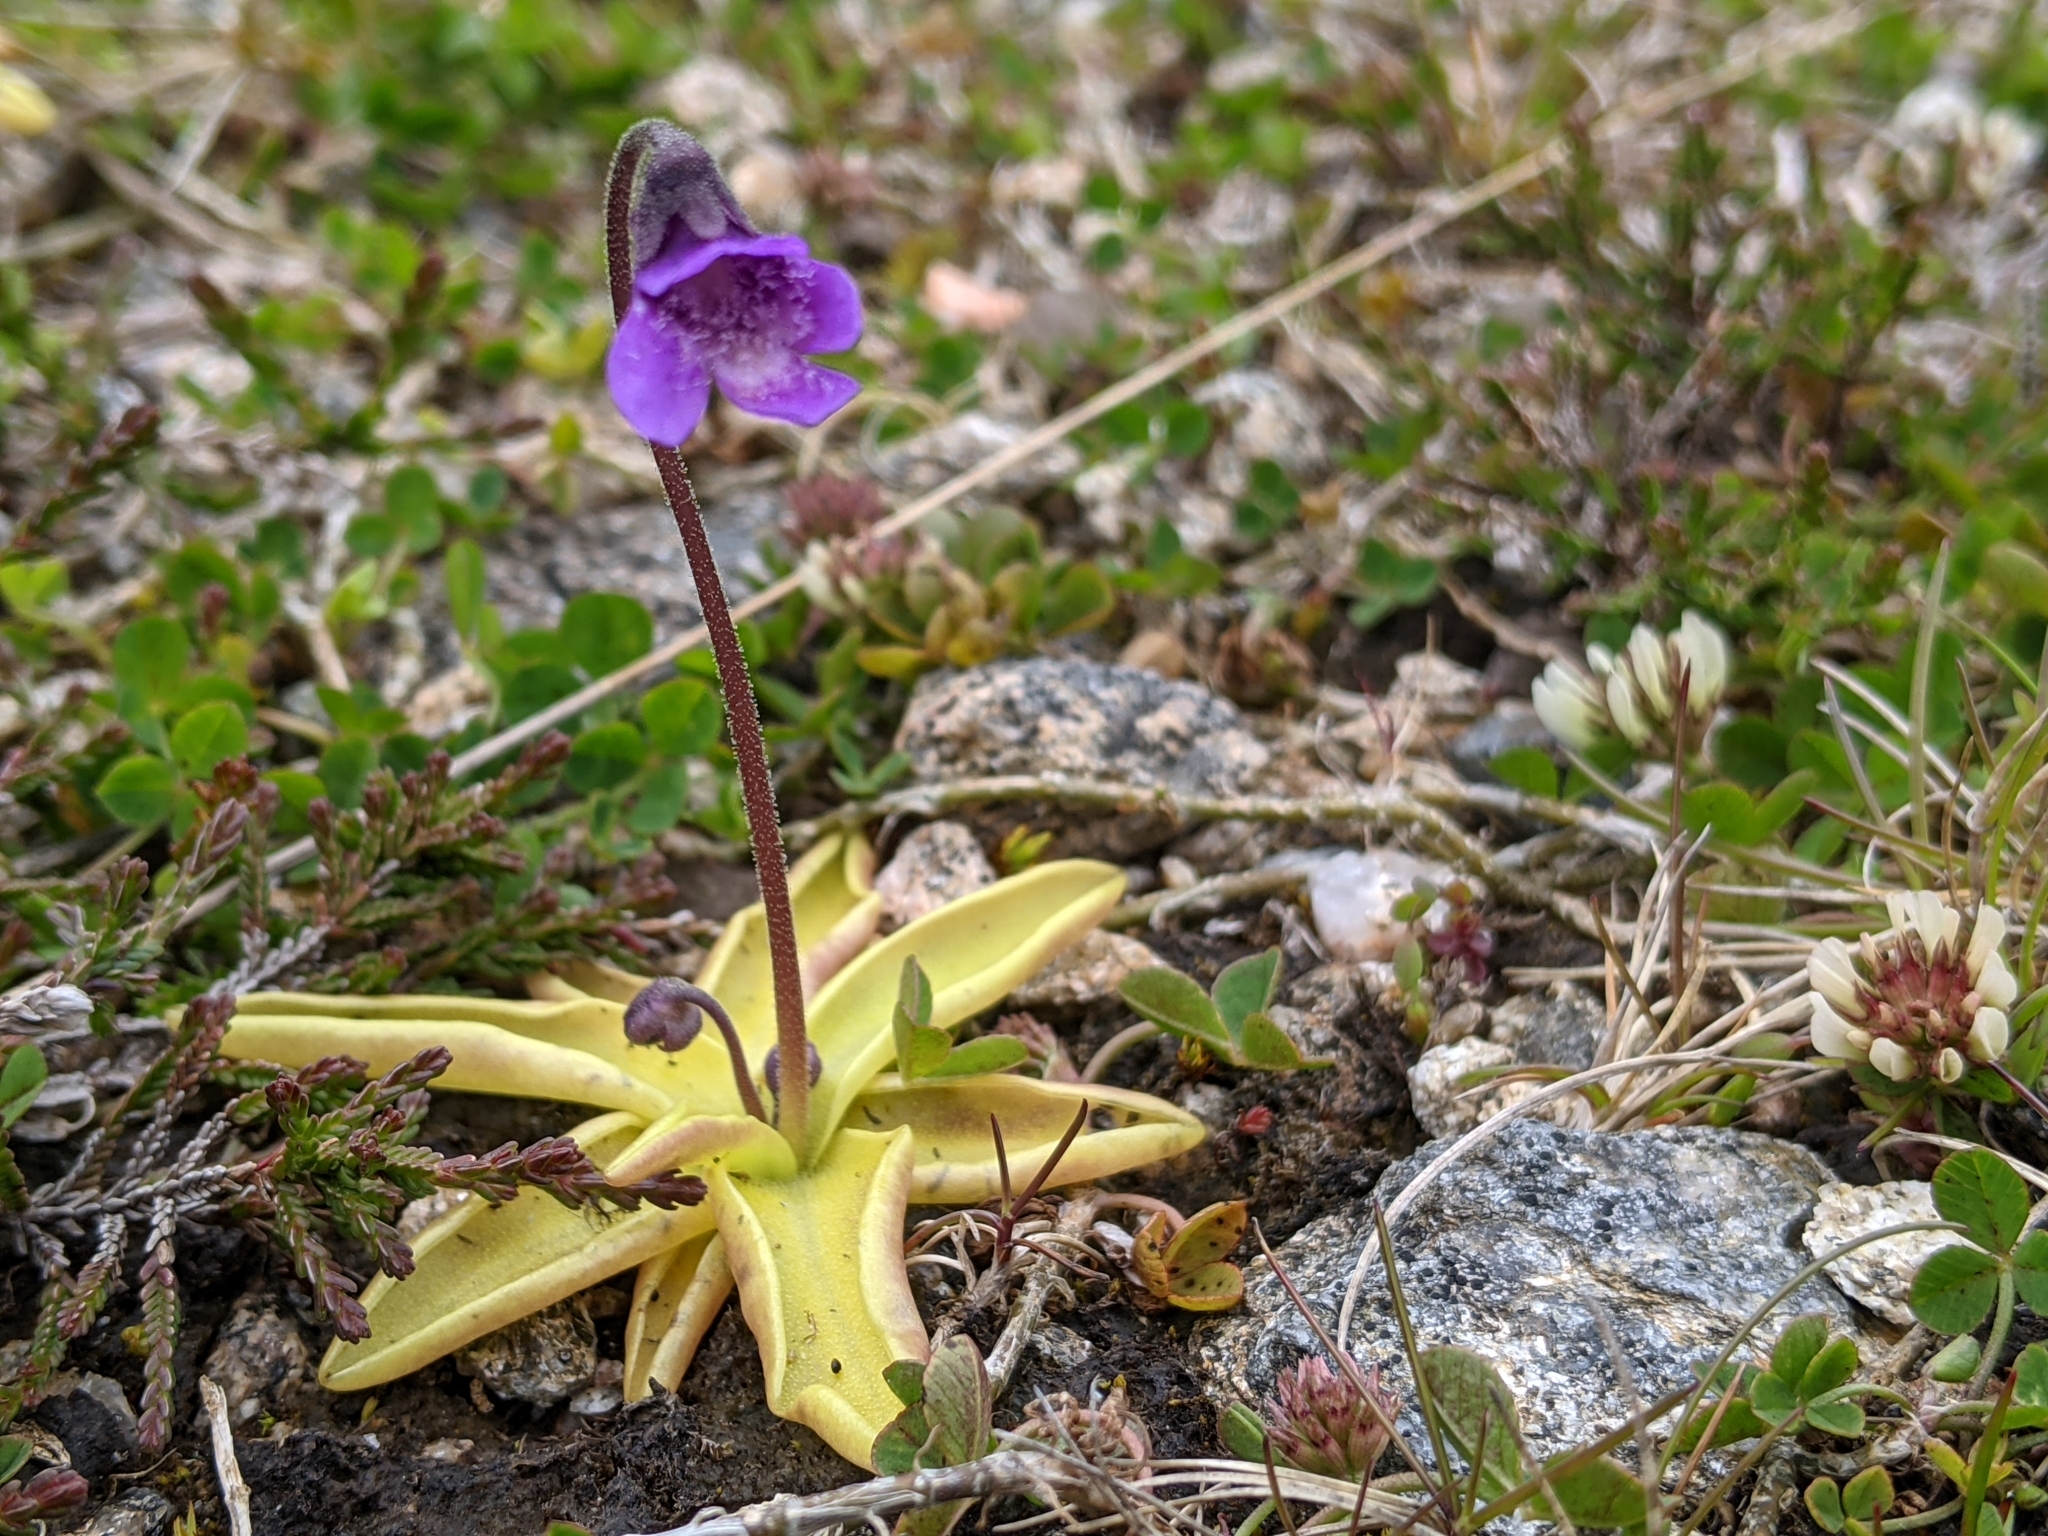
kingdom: Plantae
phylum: Tracheophyta
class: Magnoliopsida
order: Lamiales
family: Lentibulariaceae
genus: Pinguicula
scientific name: Pinguicula vulgaris
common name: Common butterwort
